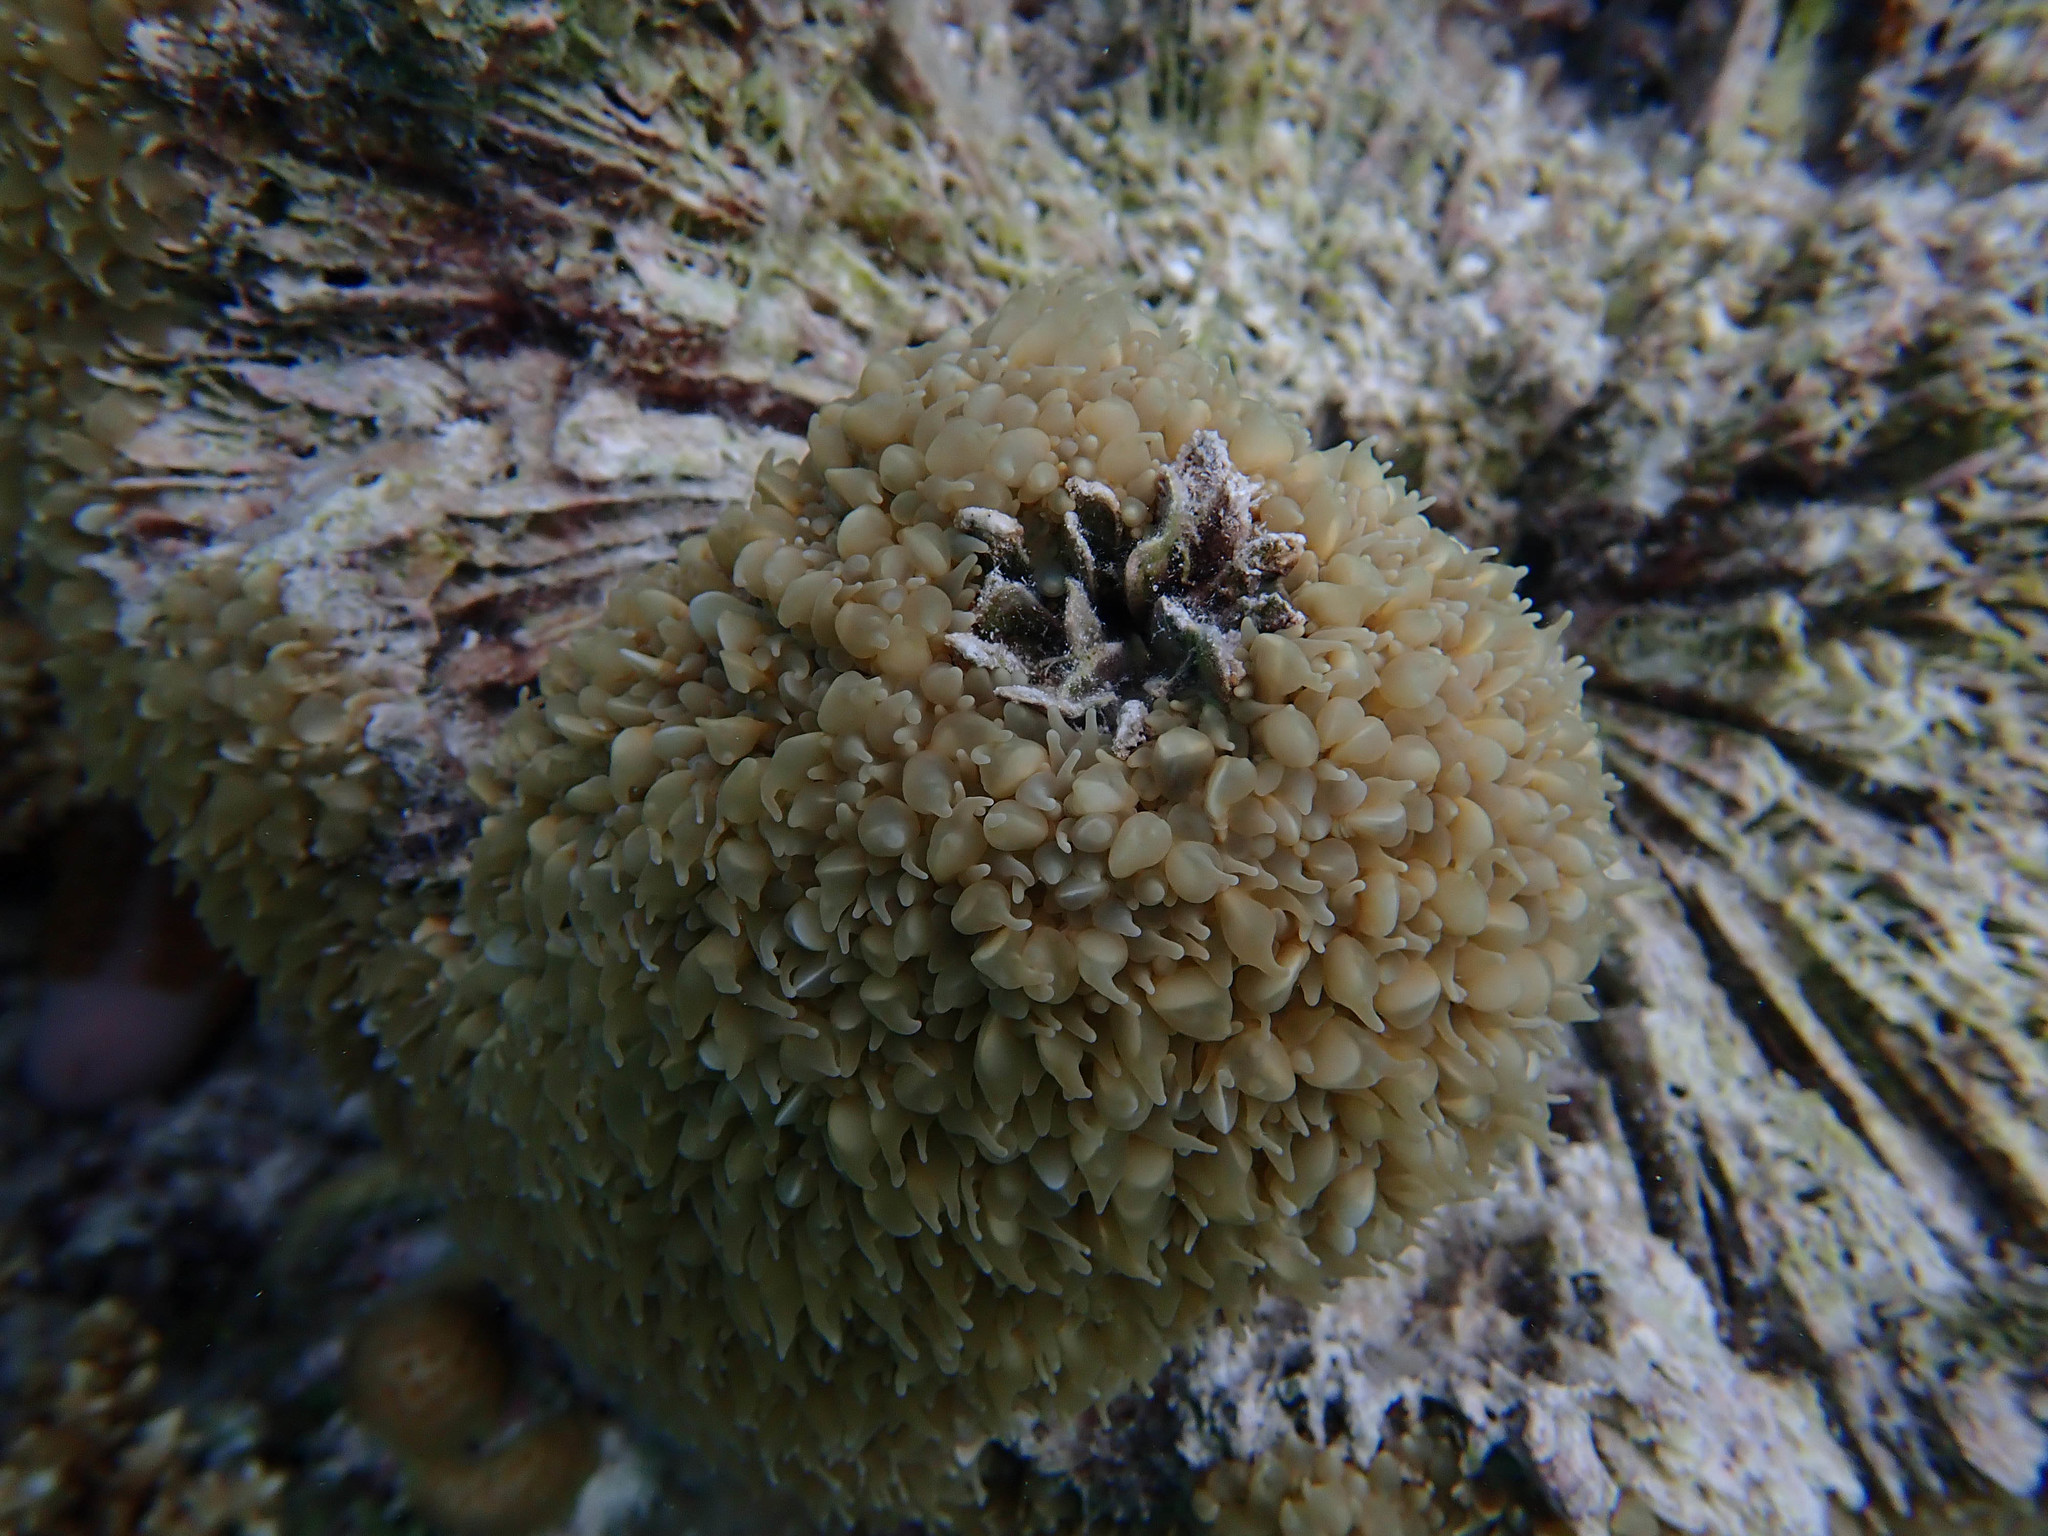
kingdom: Animalia
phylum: Cnidaria
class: Anthozoa
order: Scleractinia
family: Plerogyridae
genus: Physogyra
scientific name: Physogyra lichtensteini
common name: Tipped bubblegum coral
